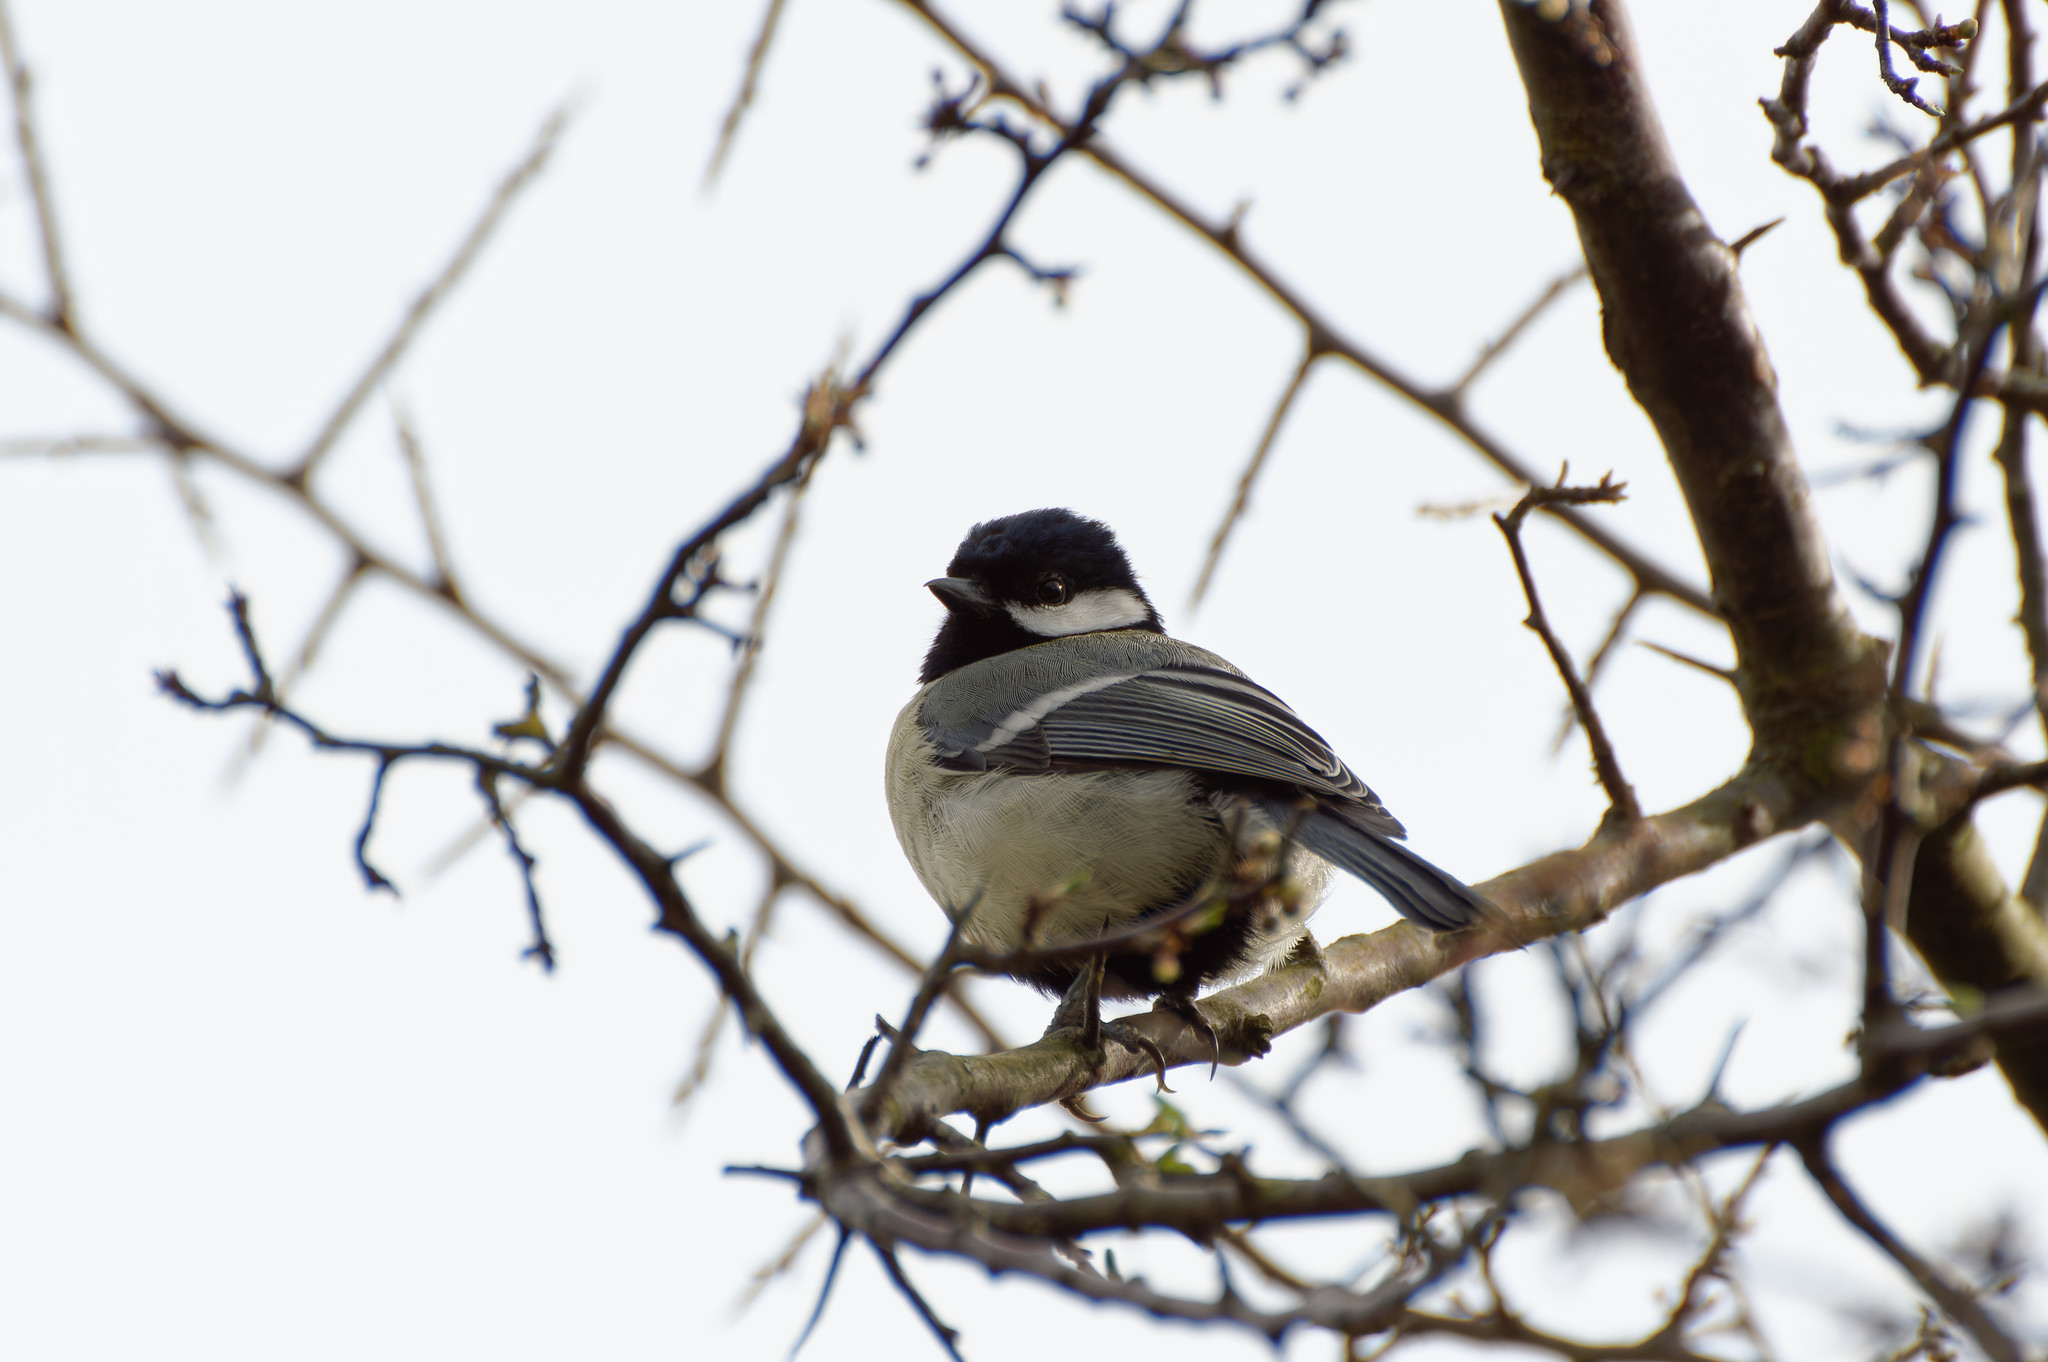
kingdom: Animalia
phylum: Chordata
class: Aves
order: Passeriformes
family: Paridae
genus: Parus
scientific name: Parus major
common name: Great tit
